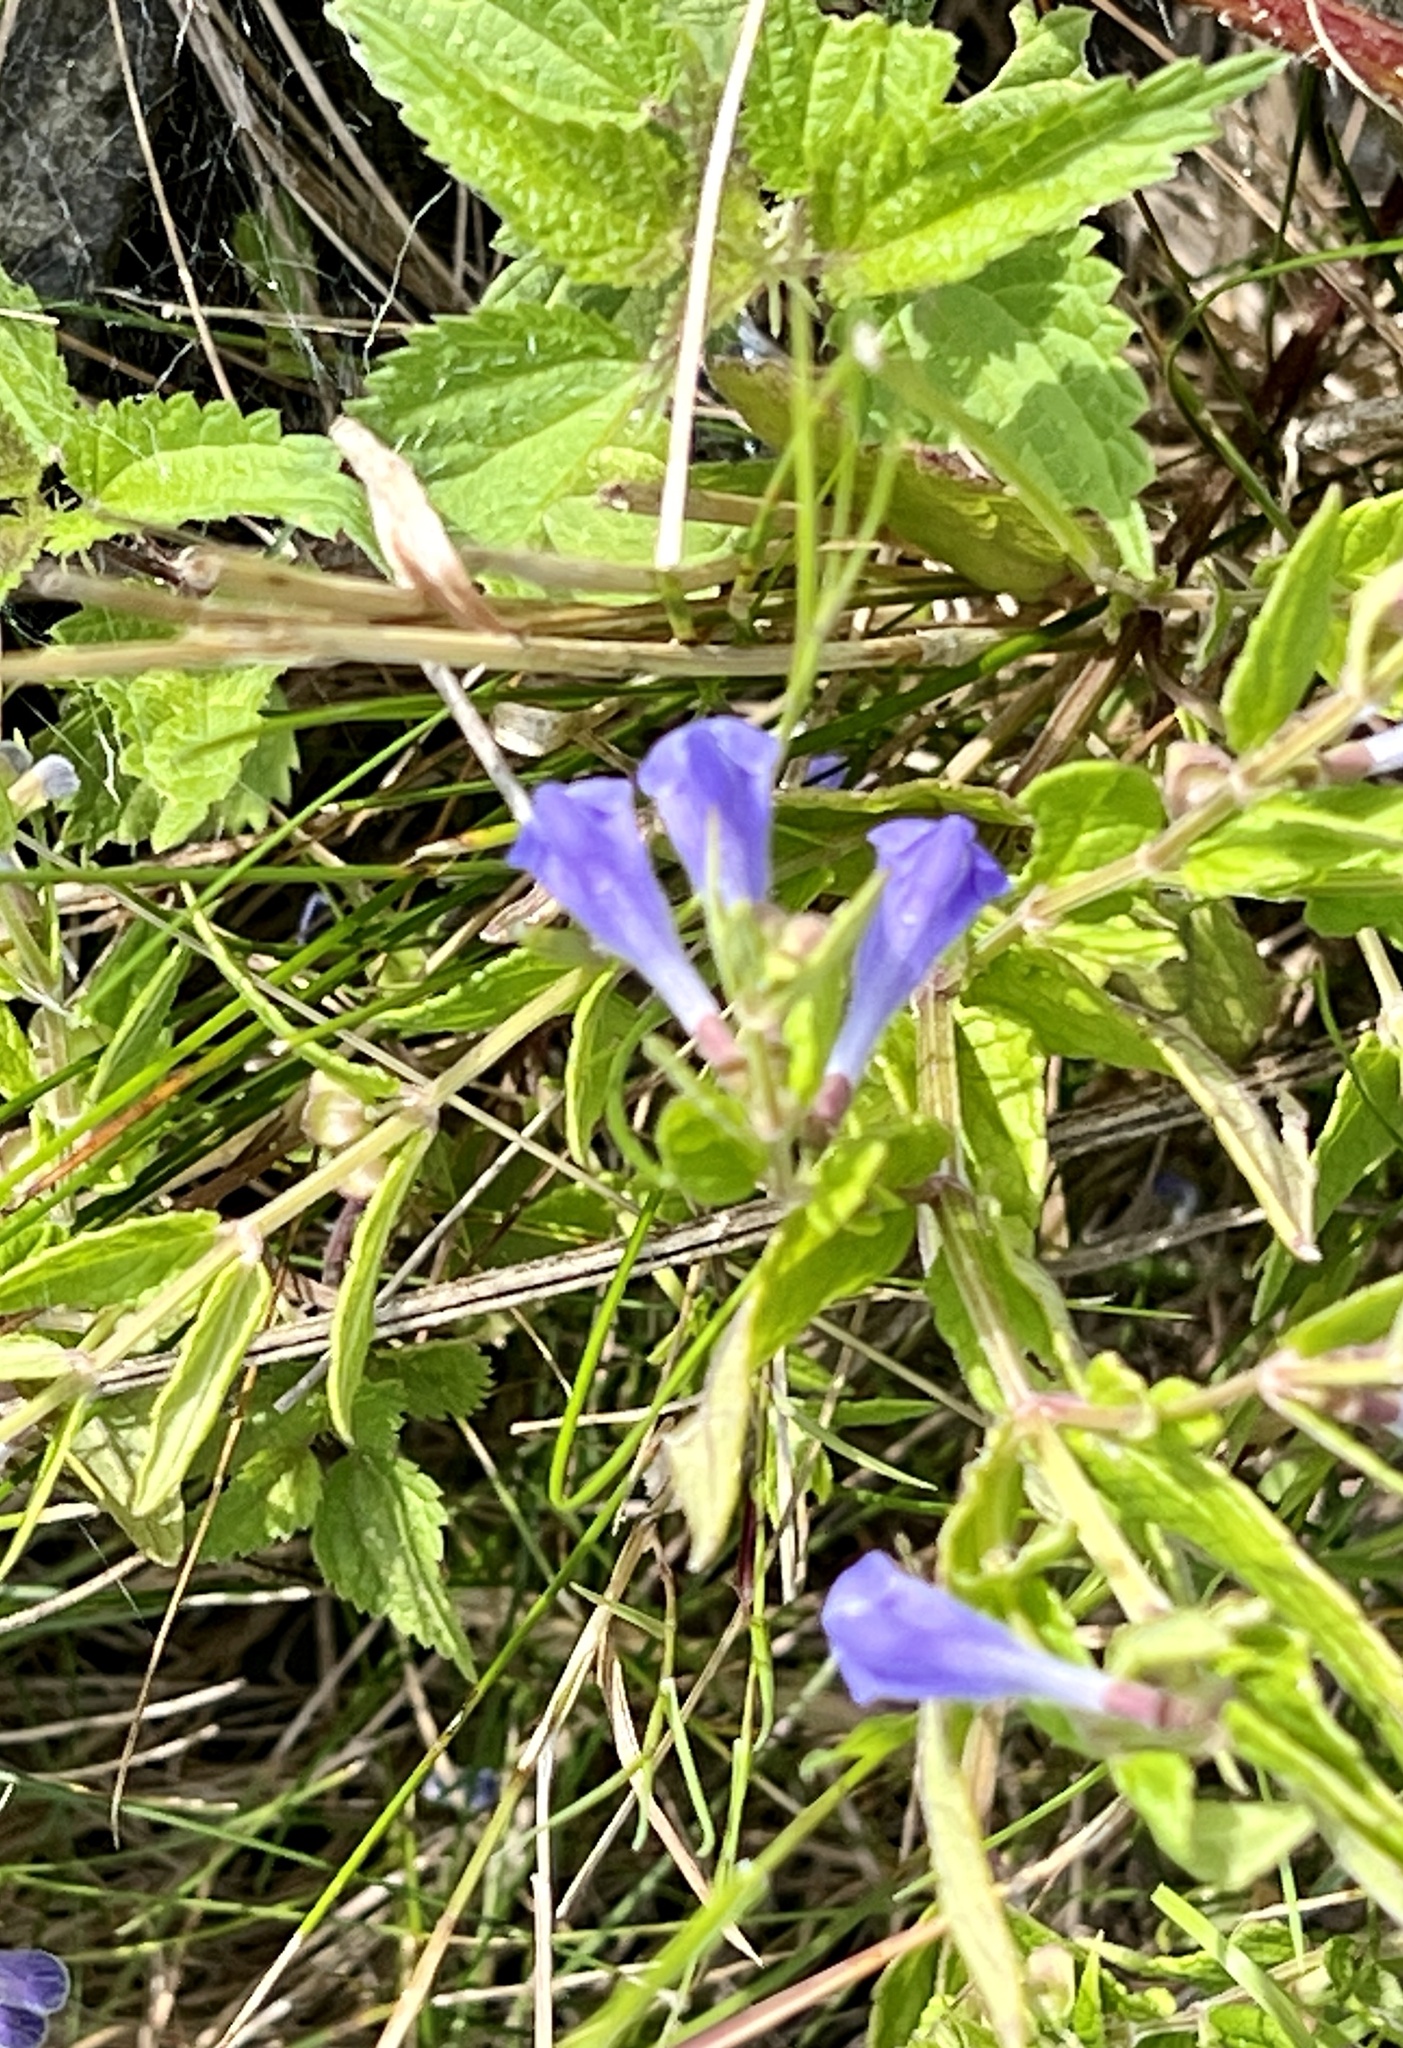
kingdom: Plantae
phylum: Tracheophyta
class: Magnoliopsida
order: Lamiales
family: Lamiaceae
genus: Scutellaria
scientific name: Scutellaria galericulata
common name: Skullcap
